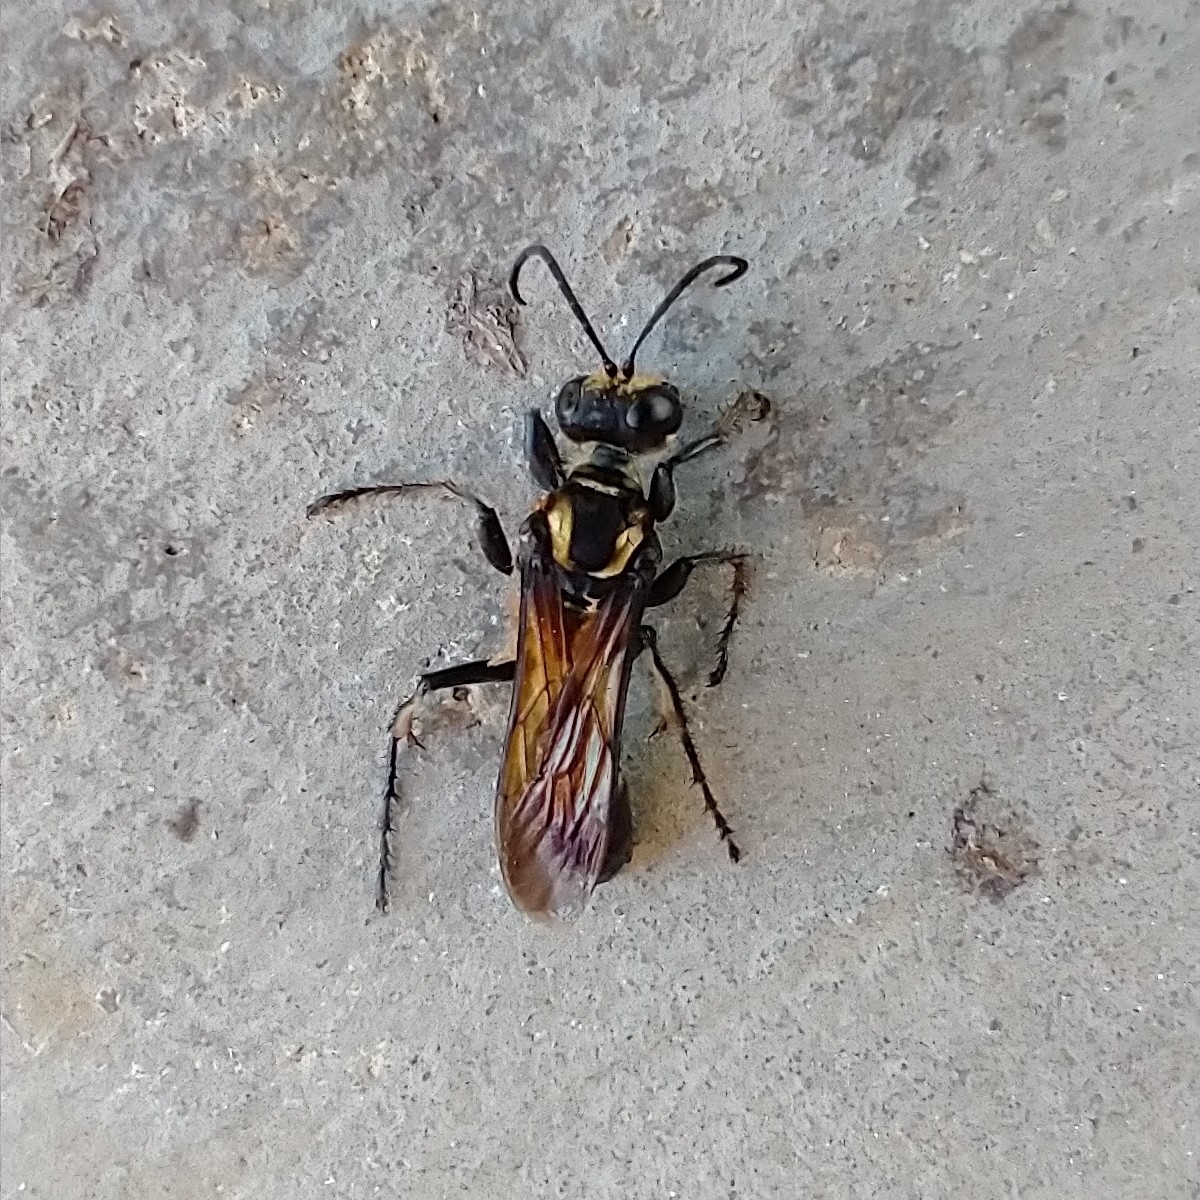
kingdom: Animalia
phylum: Arthropoda
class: Insecta
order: Hymenoptera
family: Sphecidae
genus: Sphex
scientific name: Sphex habenus
